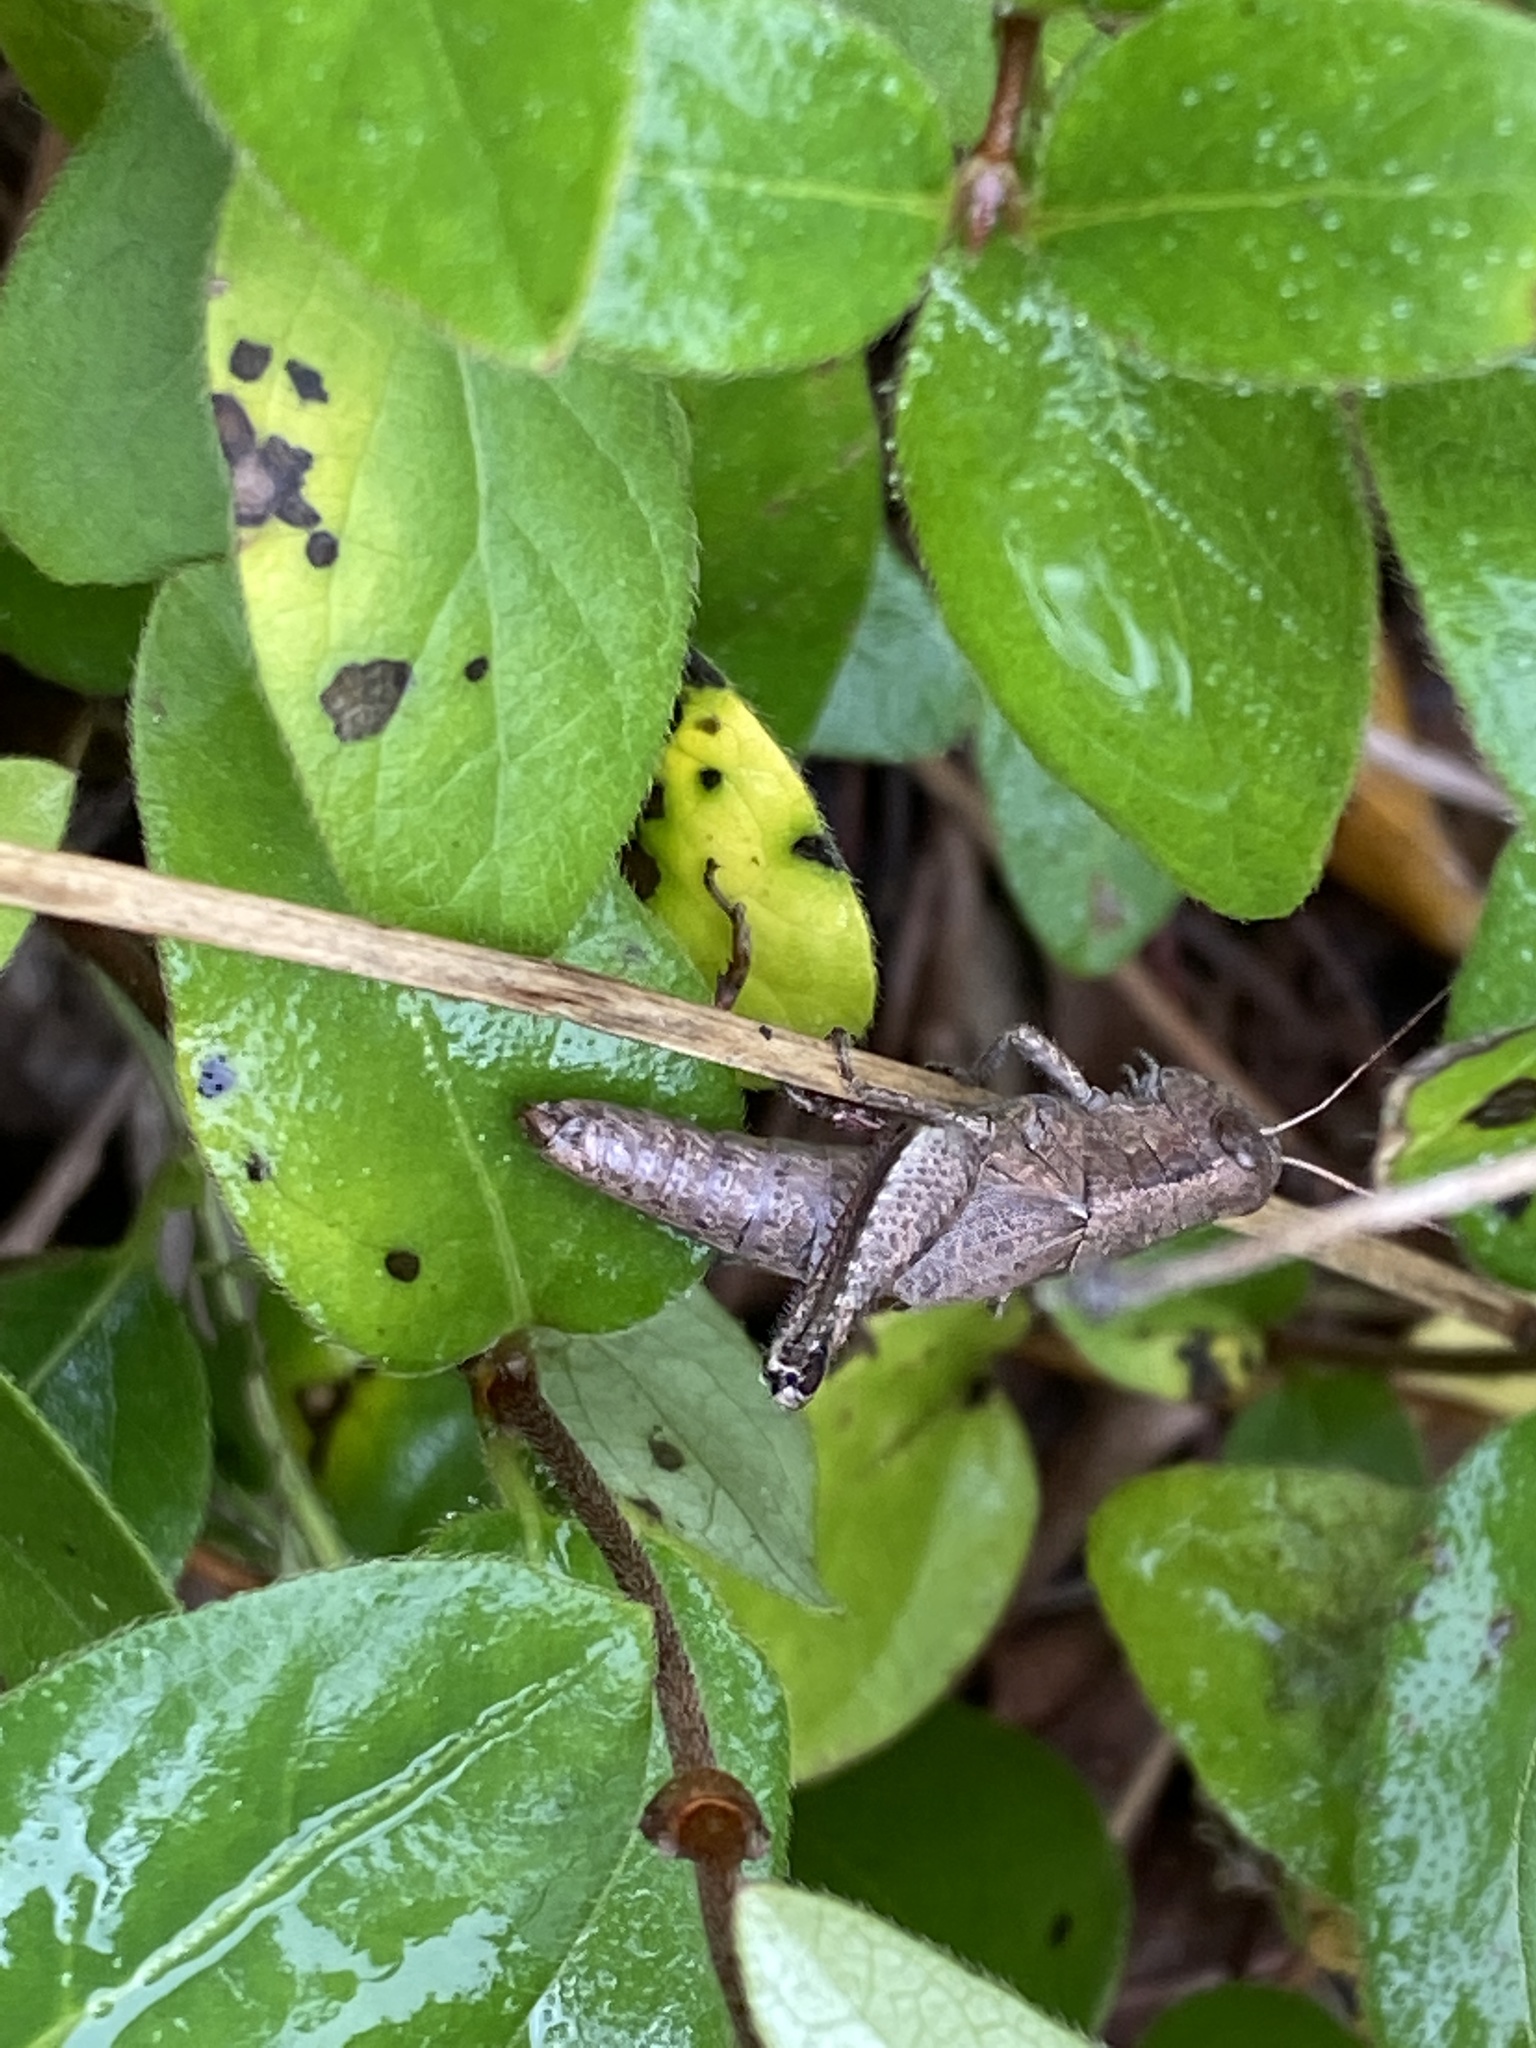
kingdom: Animalia
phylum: Arthropoda
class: Insecta
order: Orthoptera
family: Acrididae
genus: Melanoplus
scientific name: Melanoplus scudderi
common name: Scudder's short-winged locust
